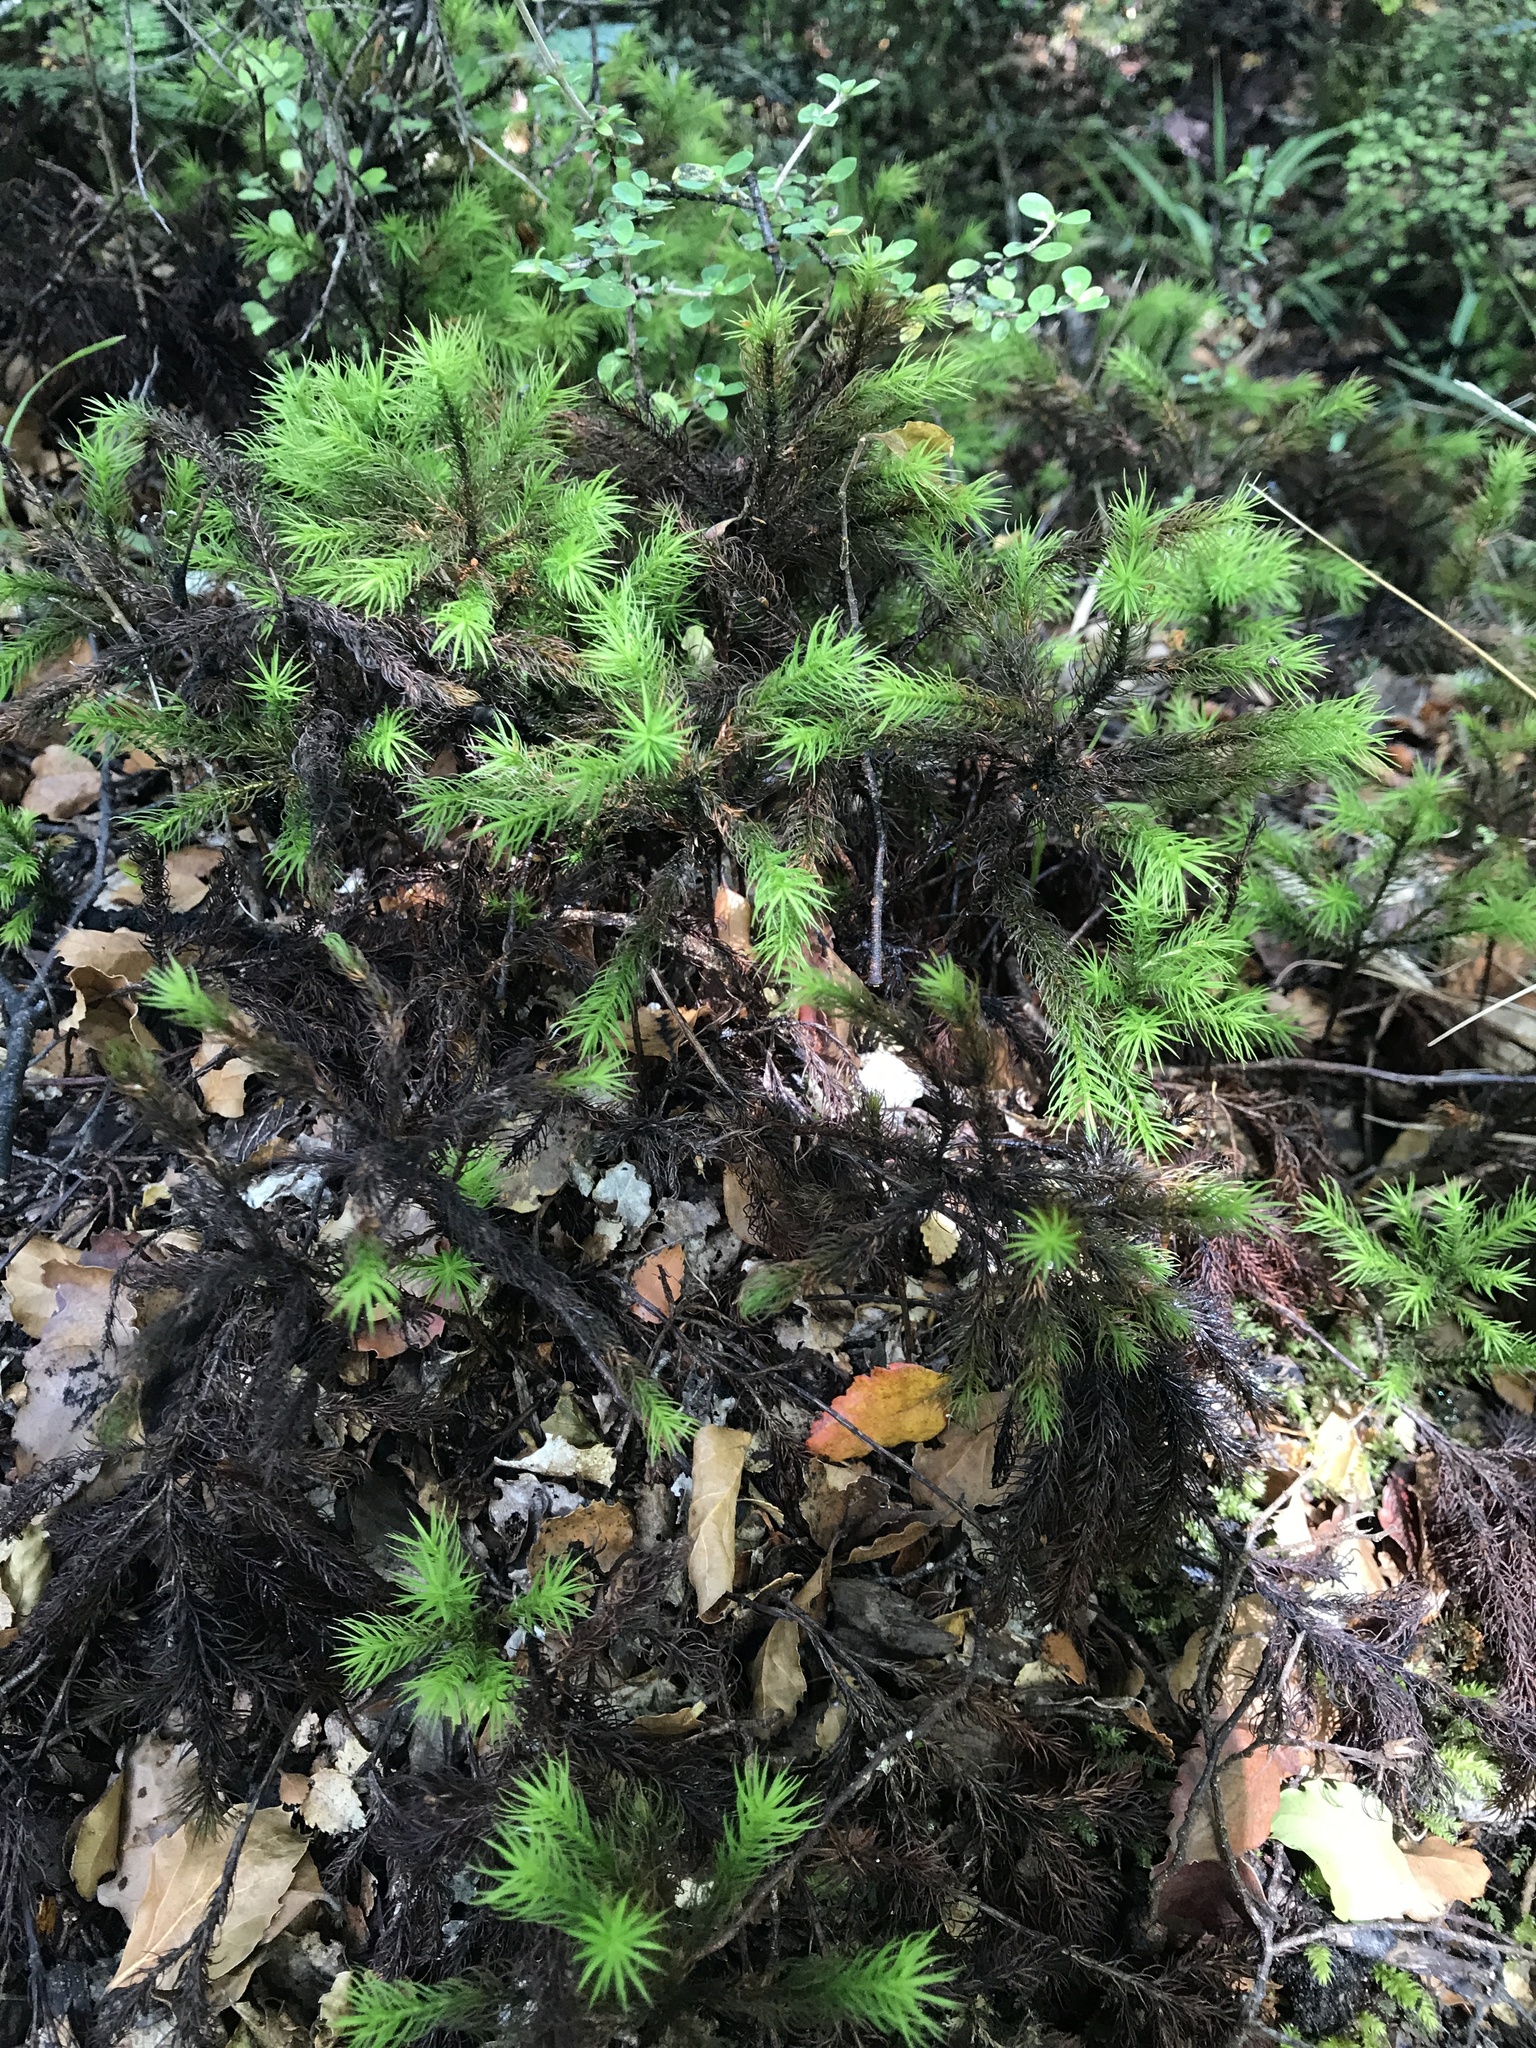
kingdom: Plantae
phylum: Bryophyta
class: Polytrichopsida
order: Polytrichales
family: Polytrichaceae
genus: Dendroligotrichum
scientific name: Dendroligotrichum tongariroense
